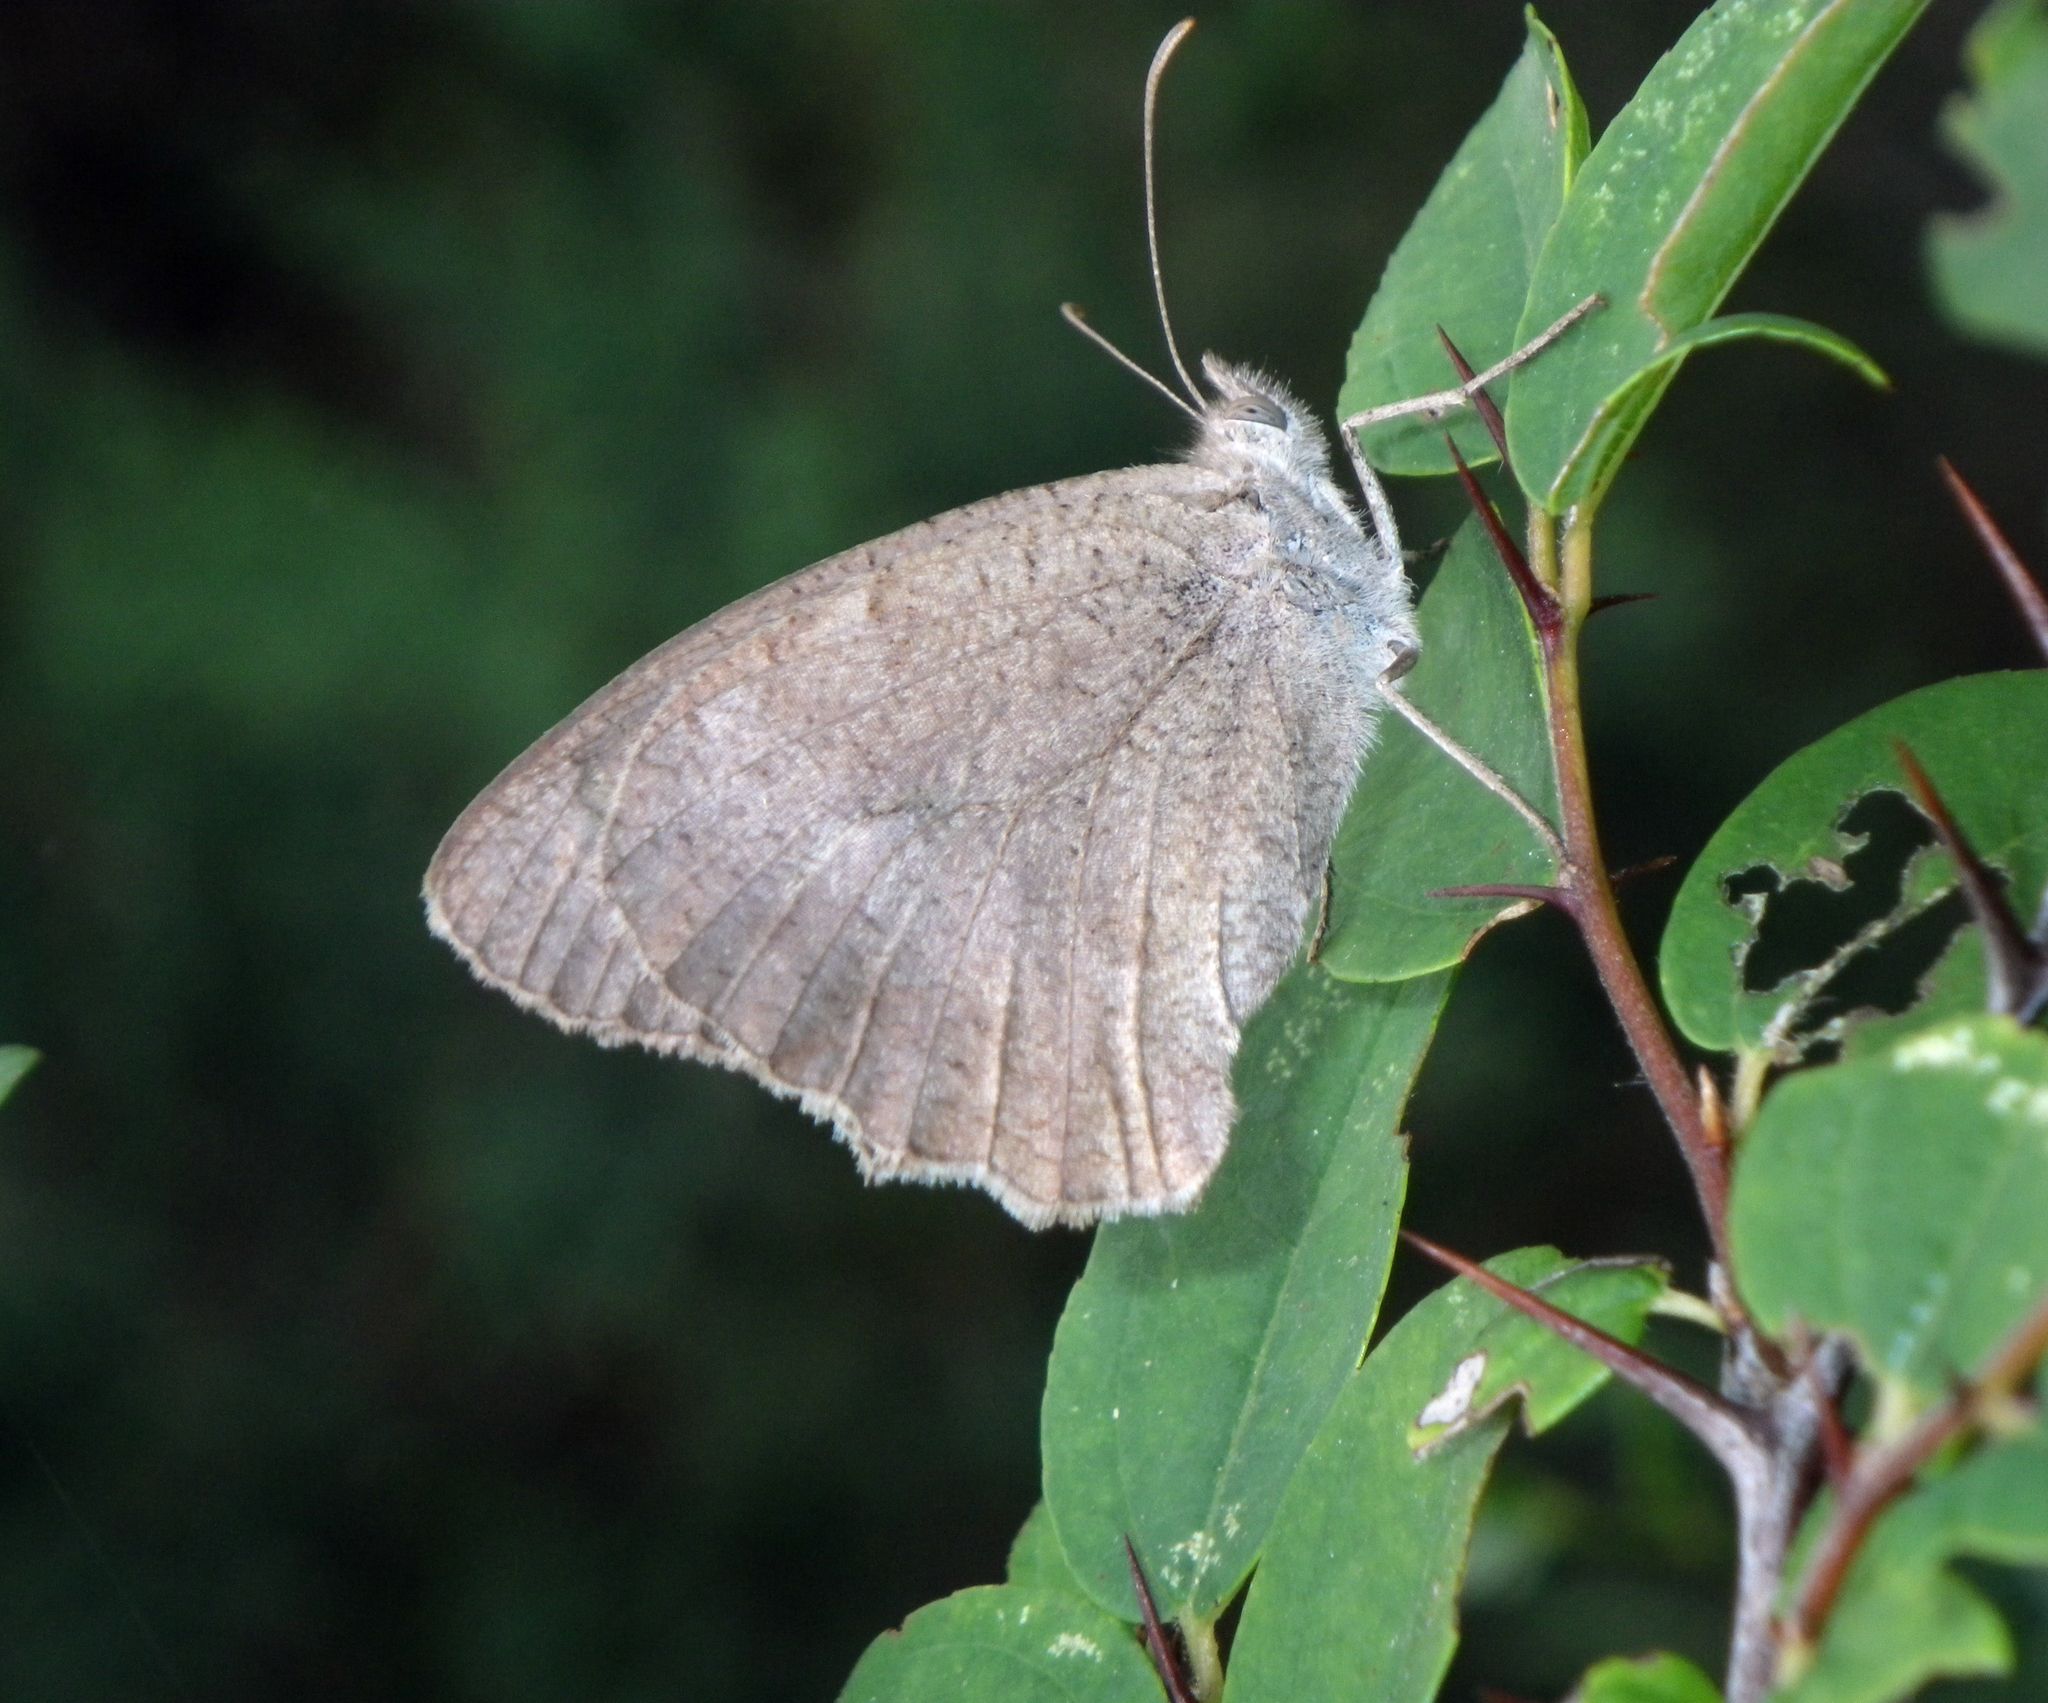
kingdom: Animalia
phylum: Arthropoda
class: Insecta
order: Lepidoptera
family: Nymphalidae
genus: Hyponephele
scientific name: Hyponephele lupinus
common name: Oriental meadow brown
